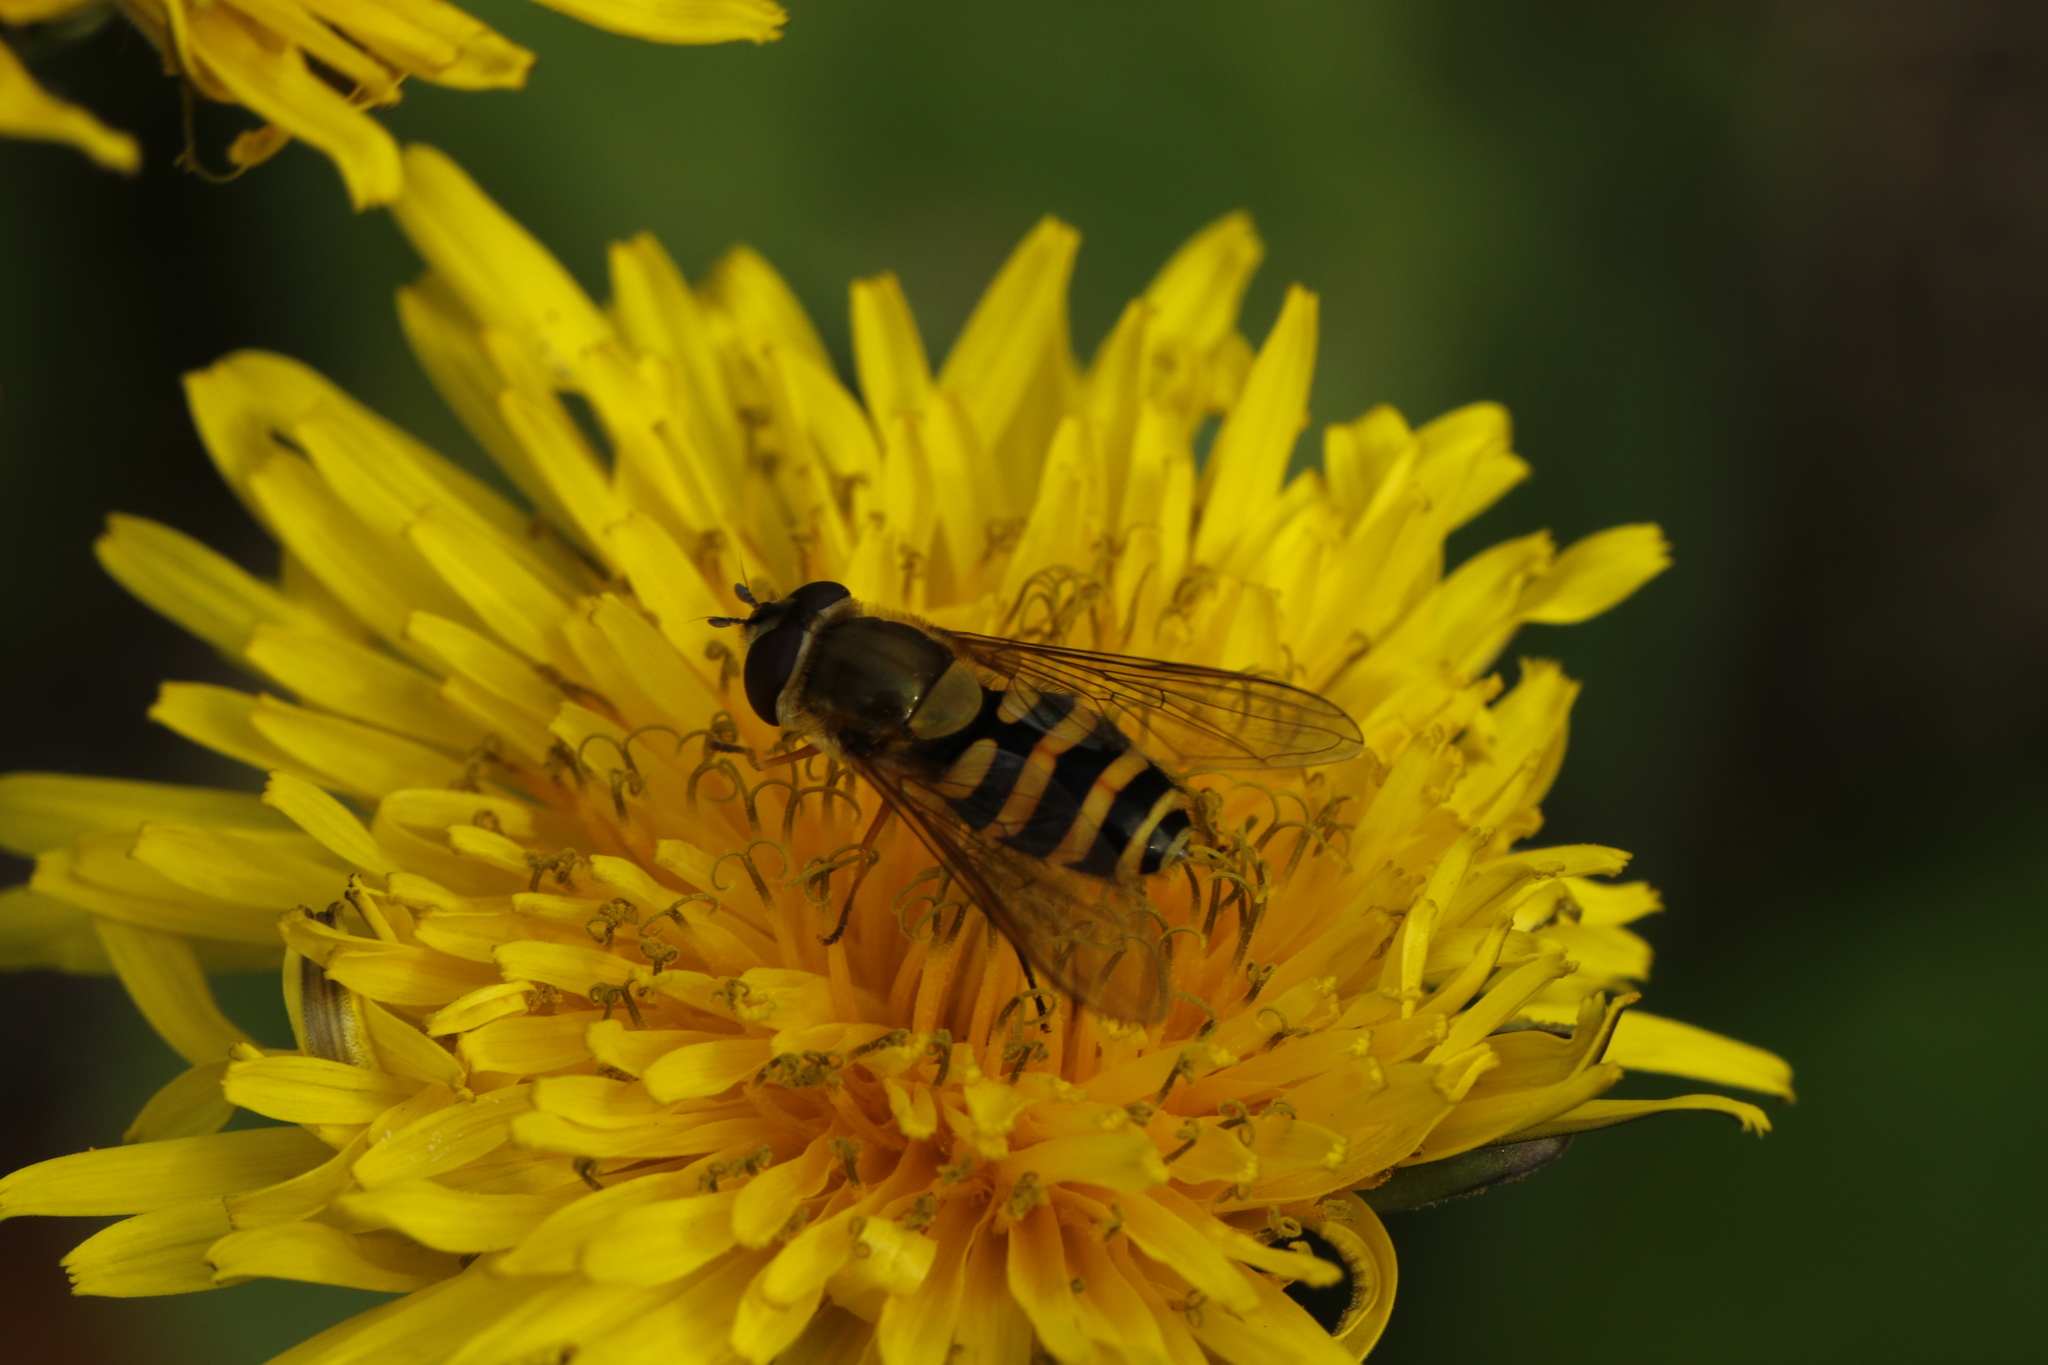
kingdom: Animalia
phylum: Arthropoda
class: Insecta
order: Diptera
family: Syrphidae
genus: Syrphus
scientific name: Syrphus
